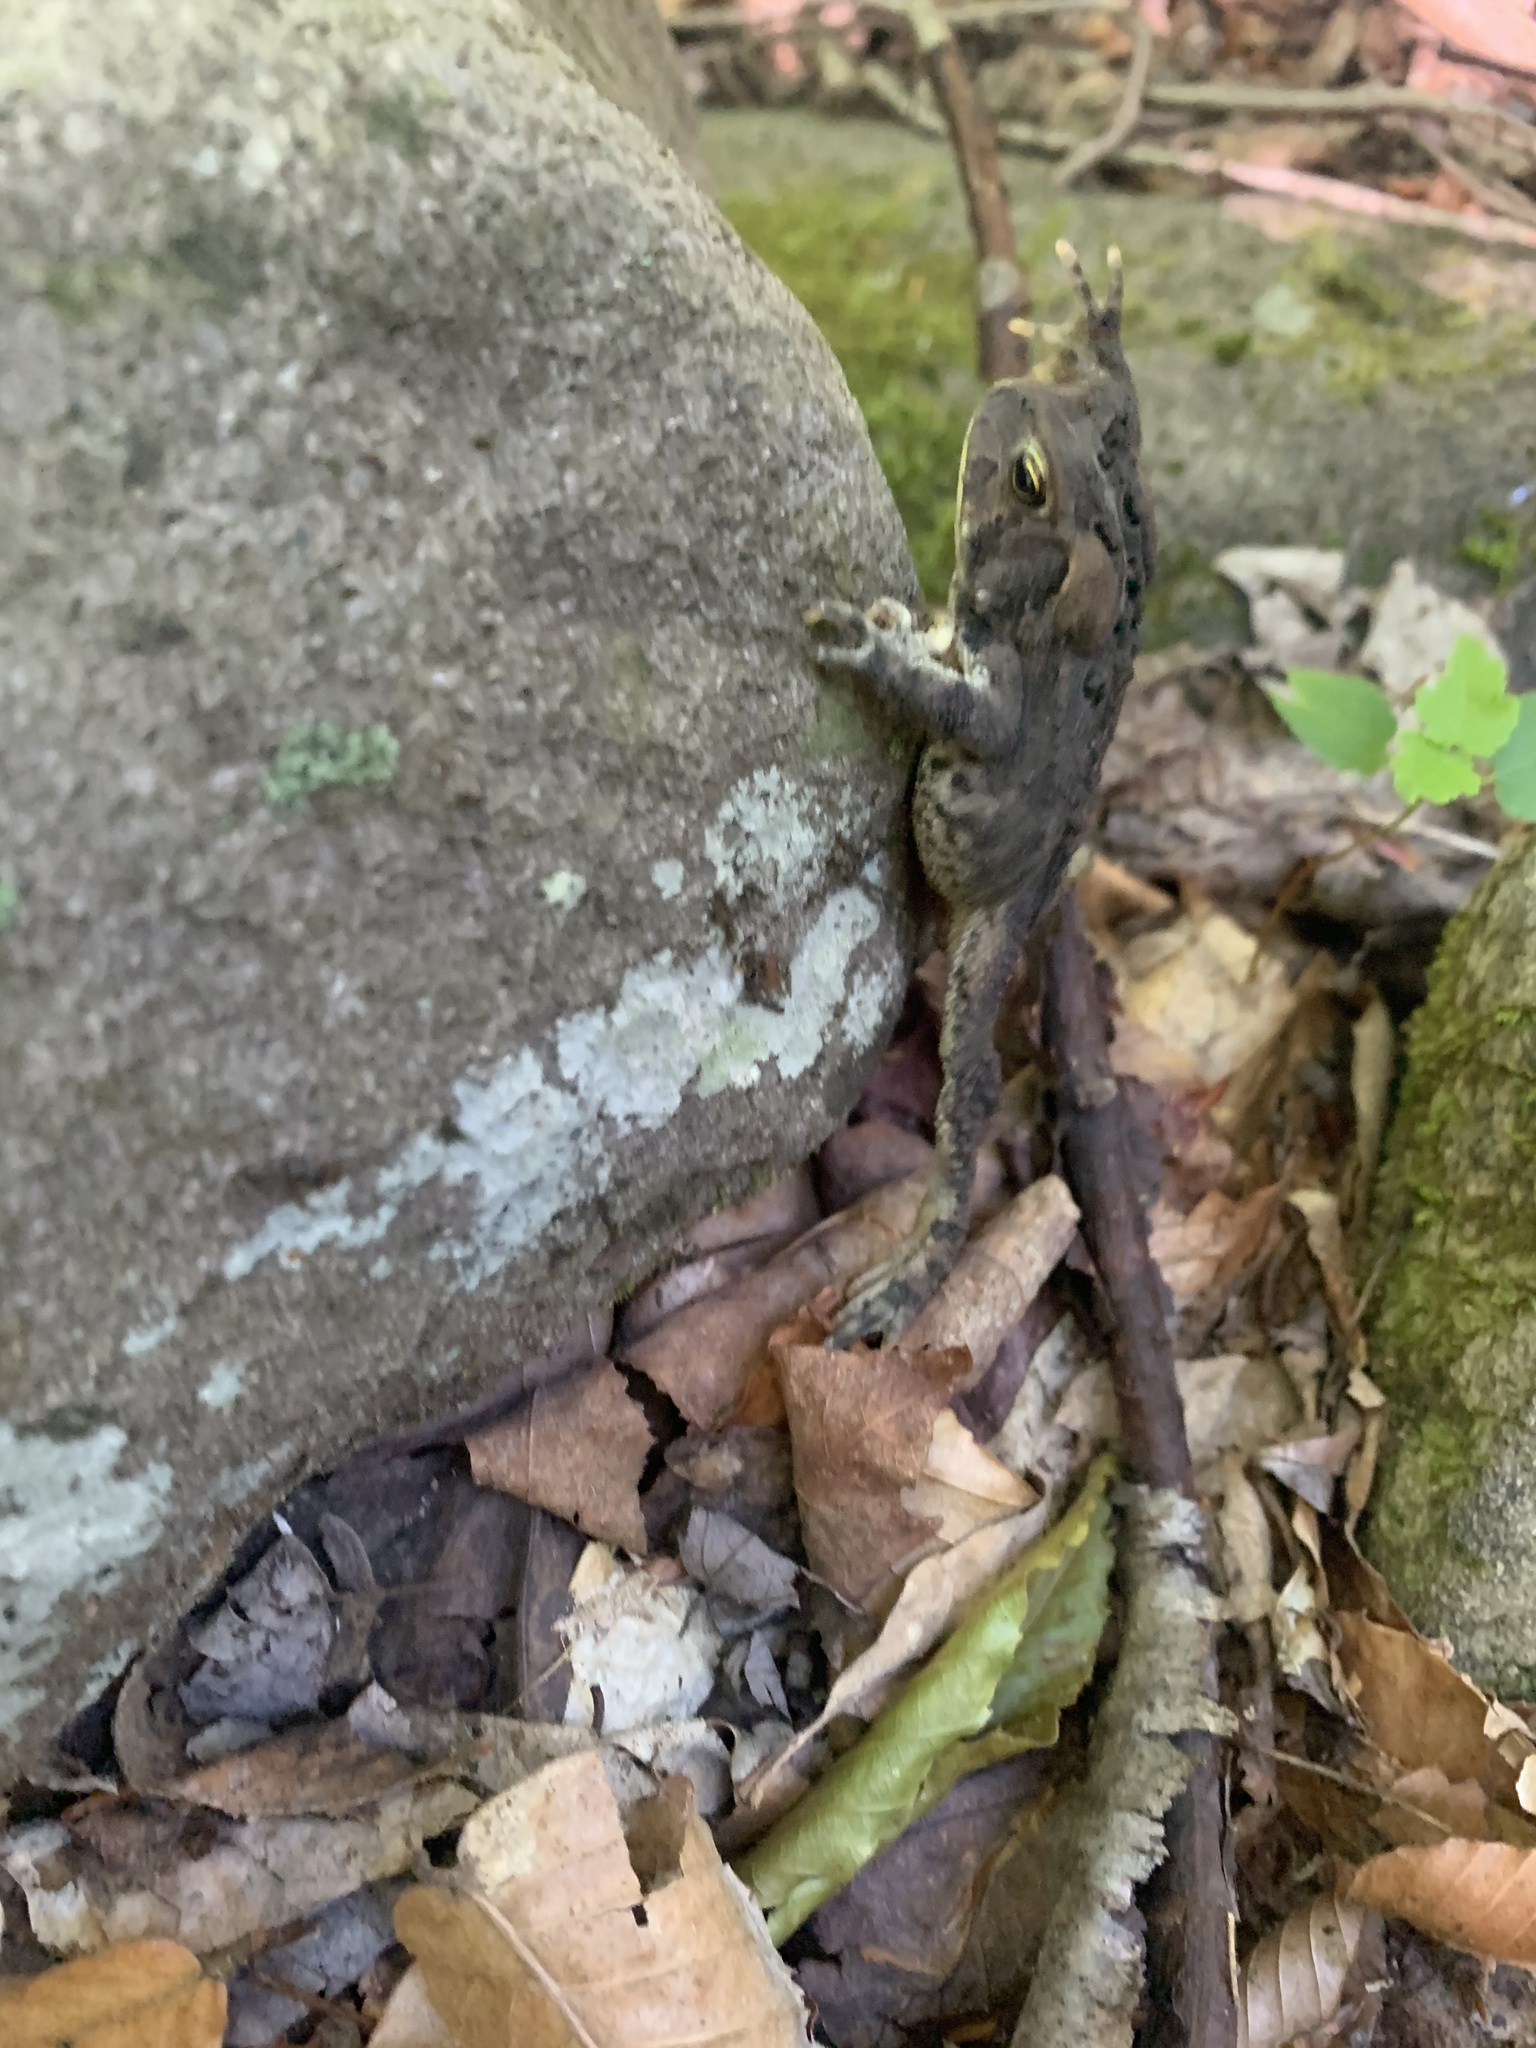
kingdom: Animalia
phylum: Chordata
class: Amphibia
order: Anura
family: Bufonidae
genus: Anaxyrus
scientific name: Anaxyrus americanus
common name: American toad
